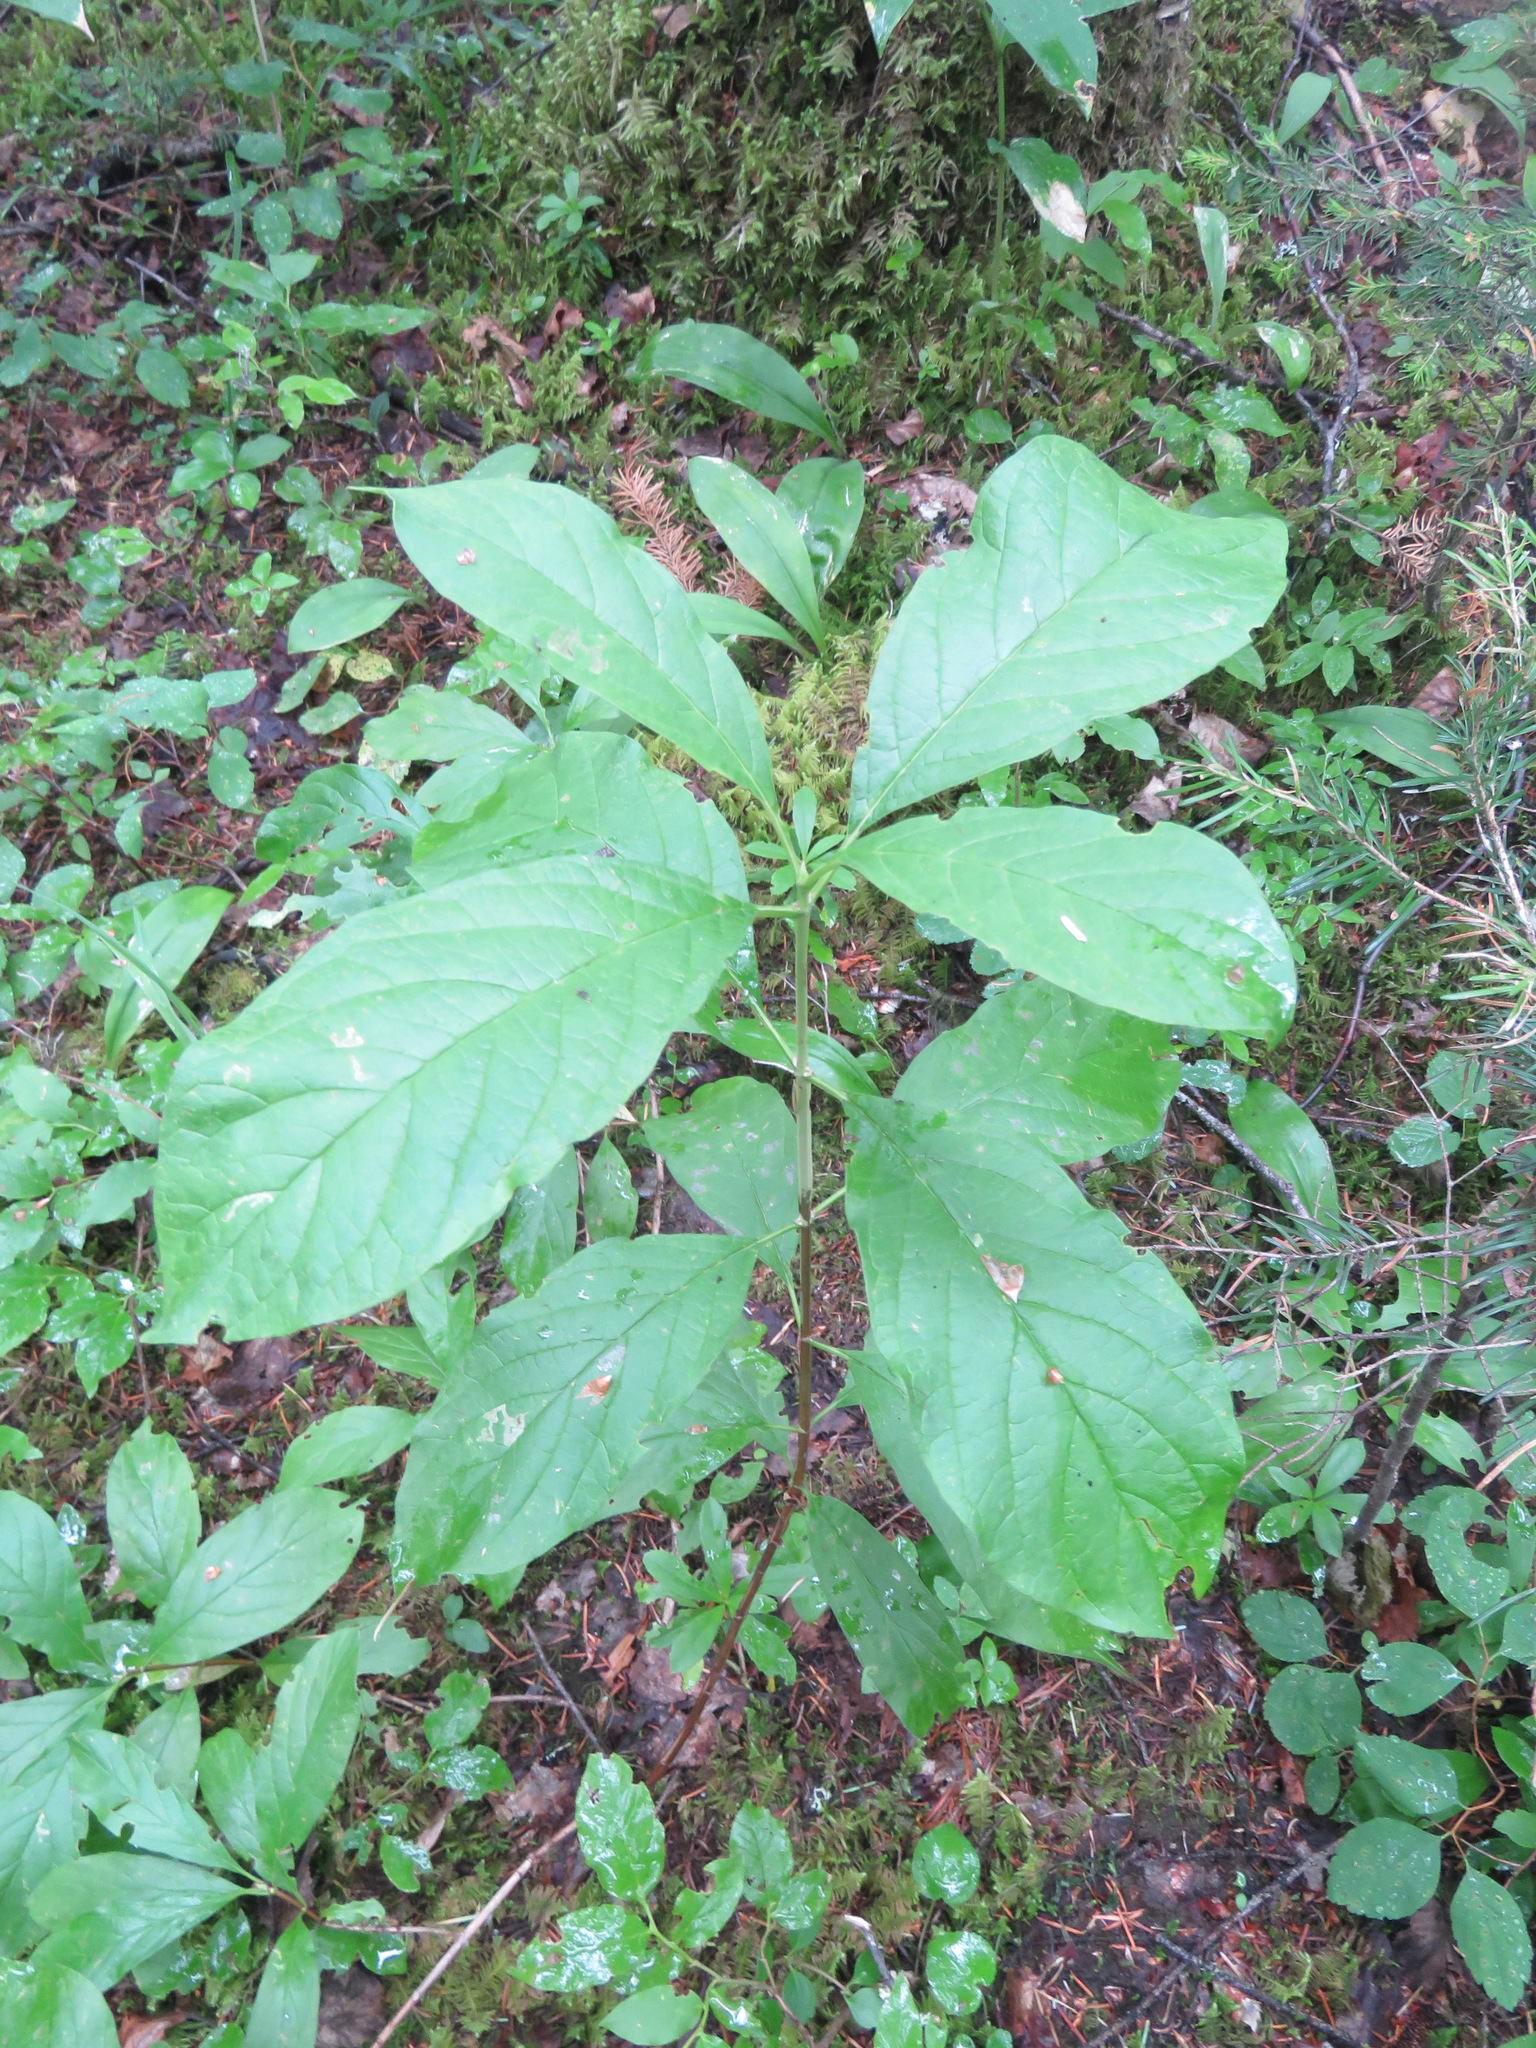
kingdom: Plantae
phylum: Tracheophyta
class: Magnoliopsida
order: Dipsacales
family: Caprifoliaceae
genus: Lonicera
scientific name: Lonicera involucrata
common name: Californian honeysuckle
